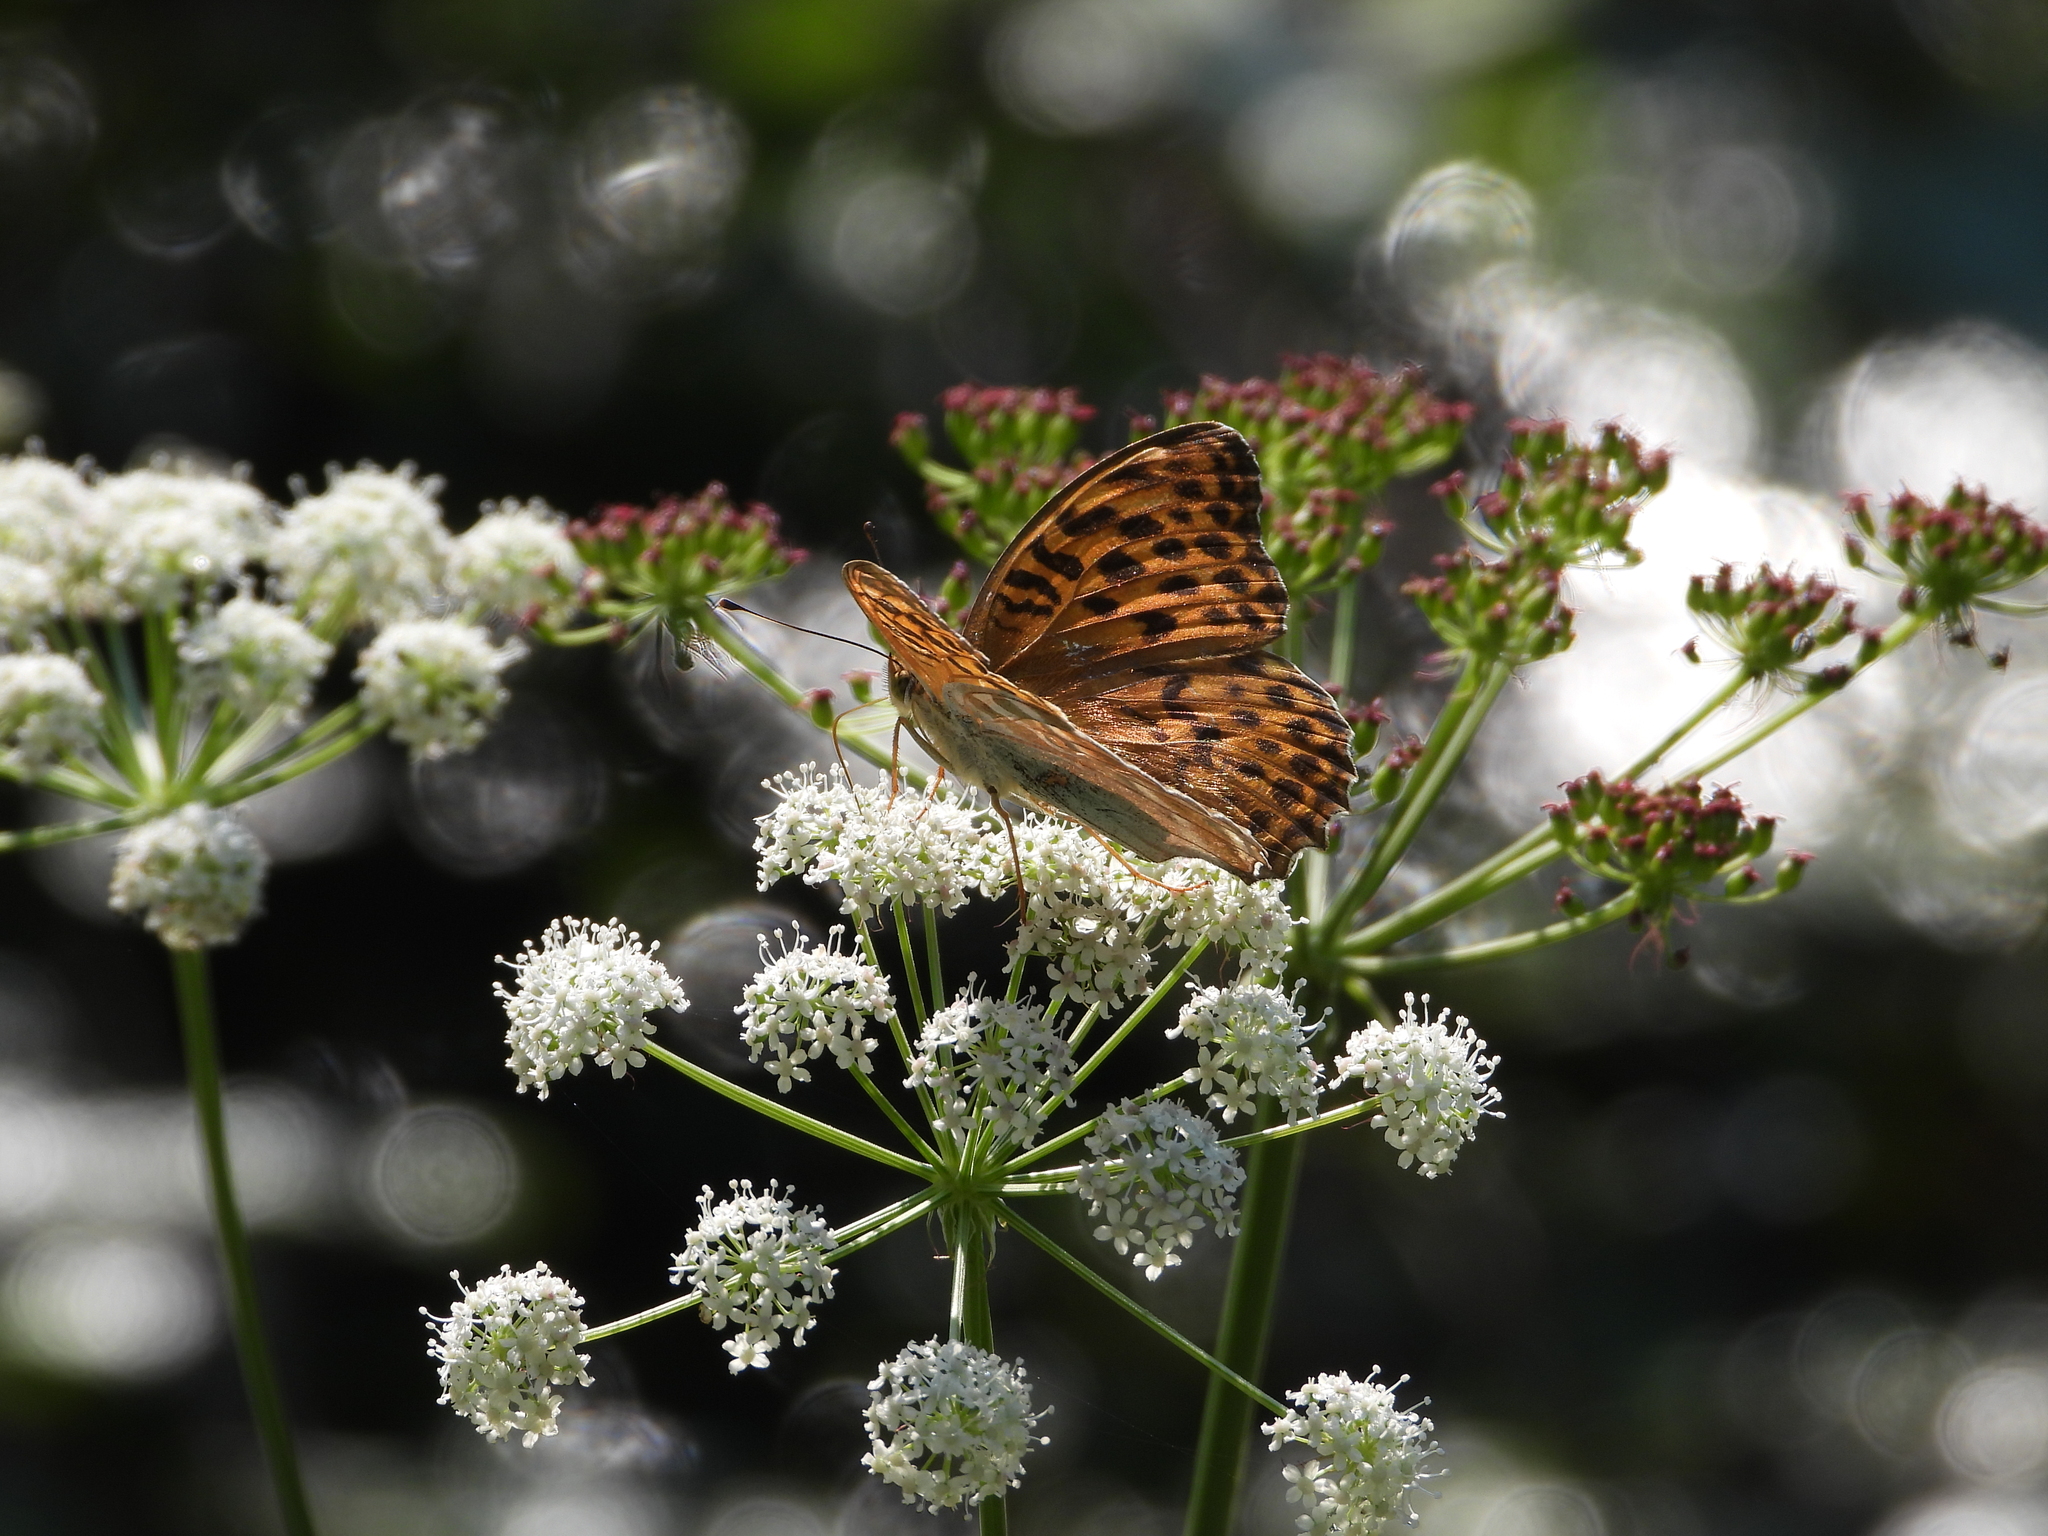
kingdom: Animalia
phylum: Arthropoda
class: Insecta
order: Lepidoptera
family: Nymphalidae
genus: Argynnis
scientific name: Argynnis paphia
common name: Silver-washed fritillary
